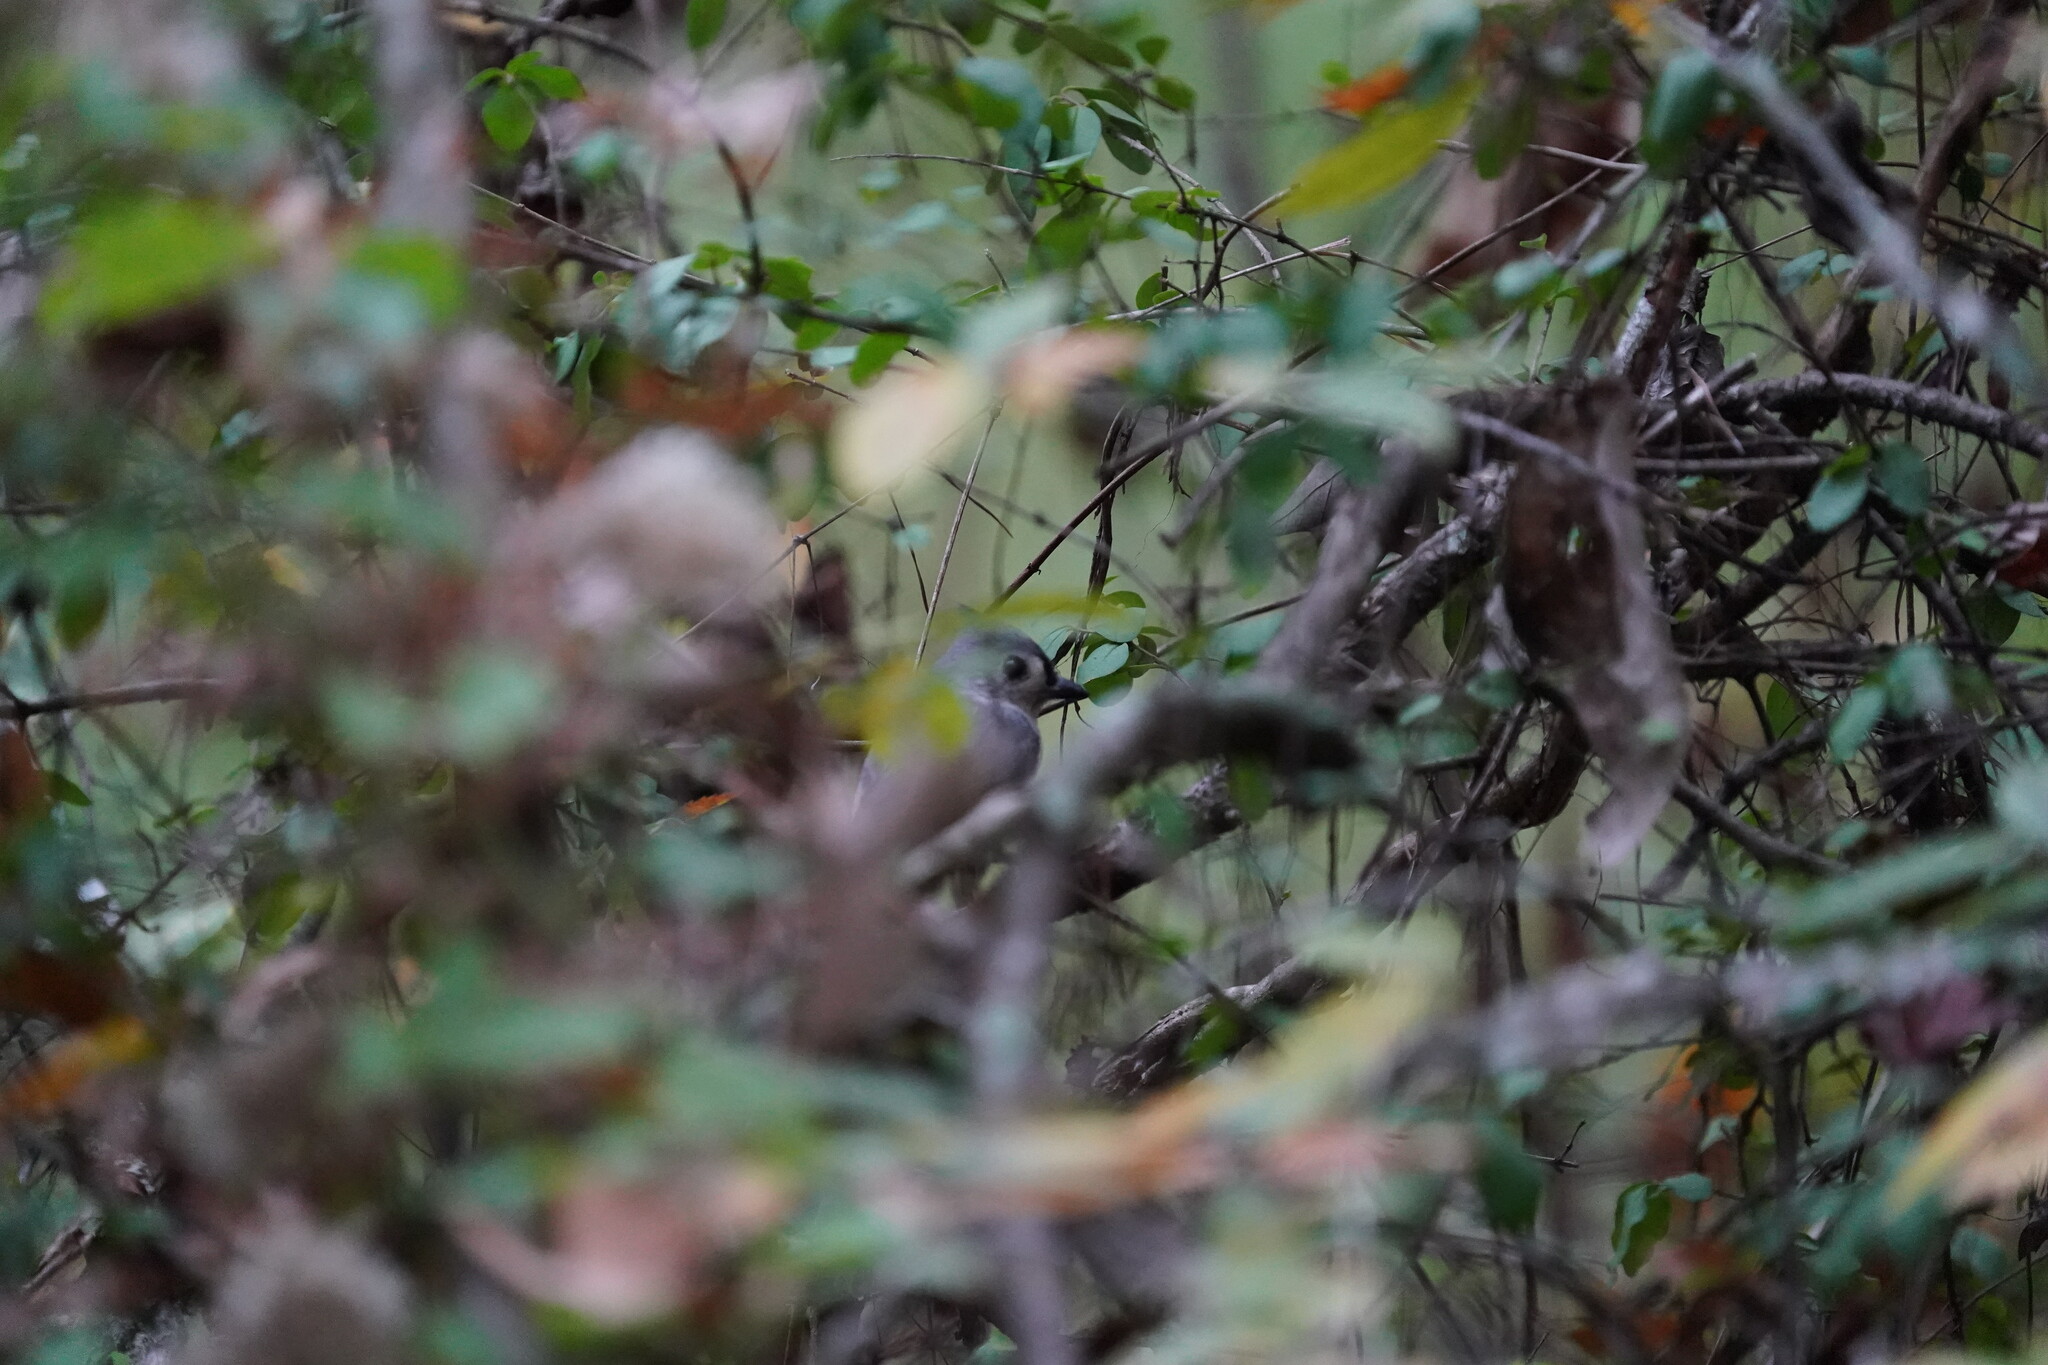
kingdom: Animalia
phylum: Chordata
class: Aves
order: Passeriformes
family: Paridae
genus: Baeolophus
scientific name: Baeolophus bicolor
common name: Tufted titmouse
